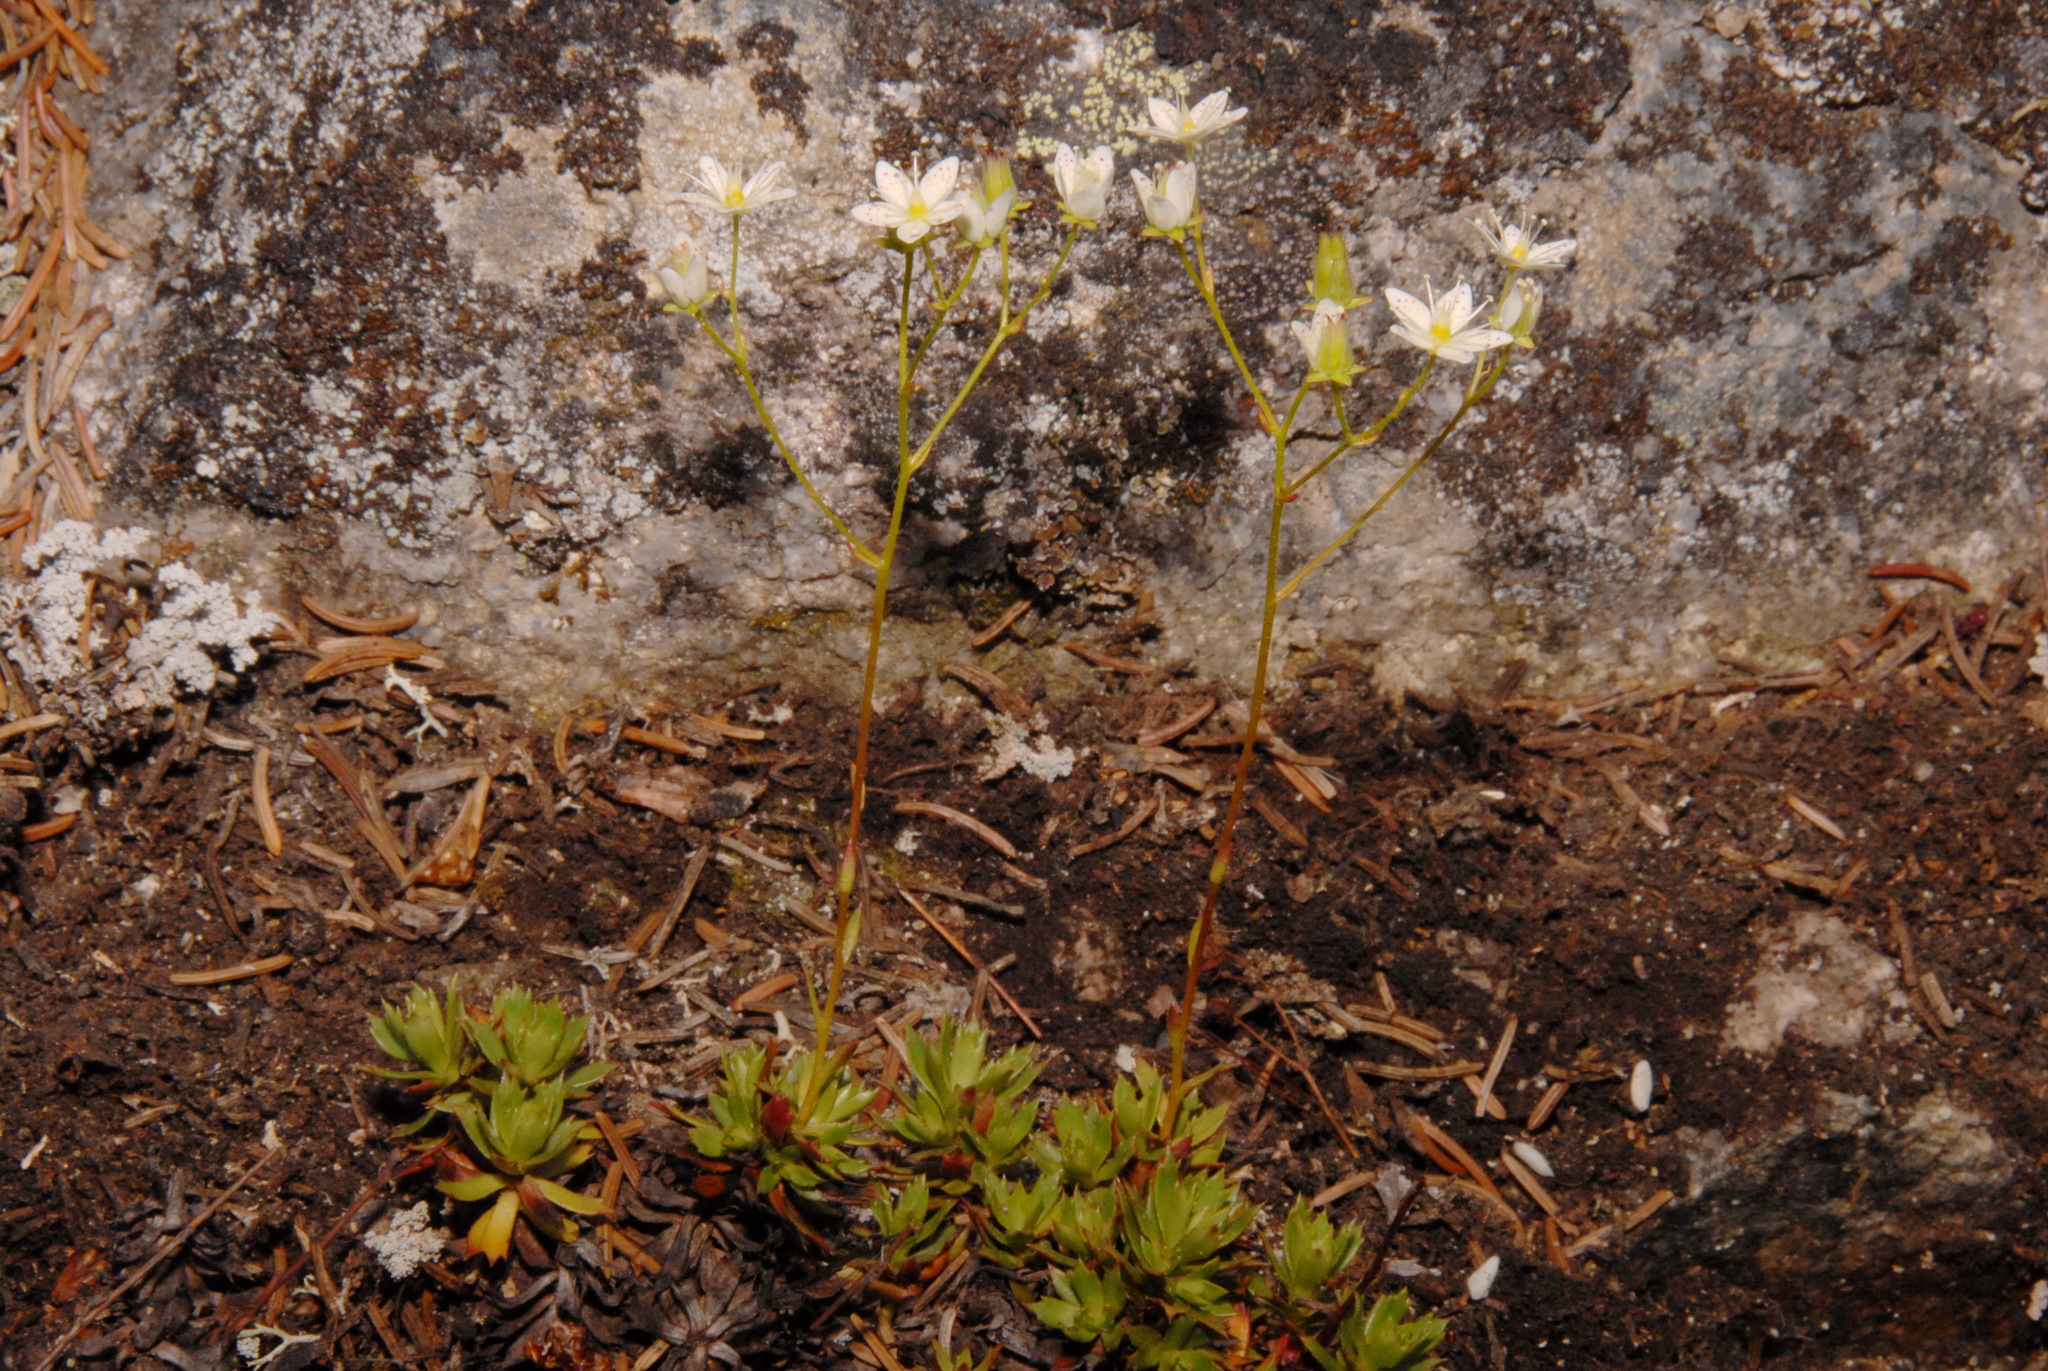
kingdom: Plantae
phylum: Tracheophyta
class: Magnoliopsida
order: Saxifragales
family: Saxifragaceae
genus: Saxifraga
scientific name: Saxifraga tricuspidata
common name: Prickly saxifrage
